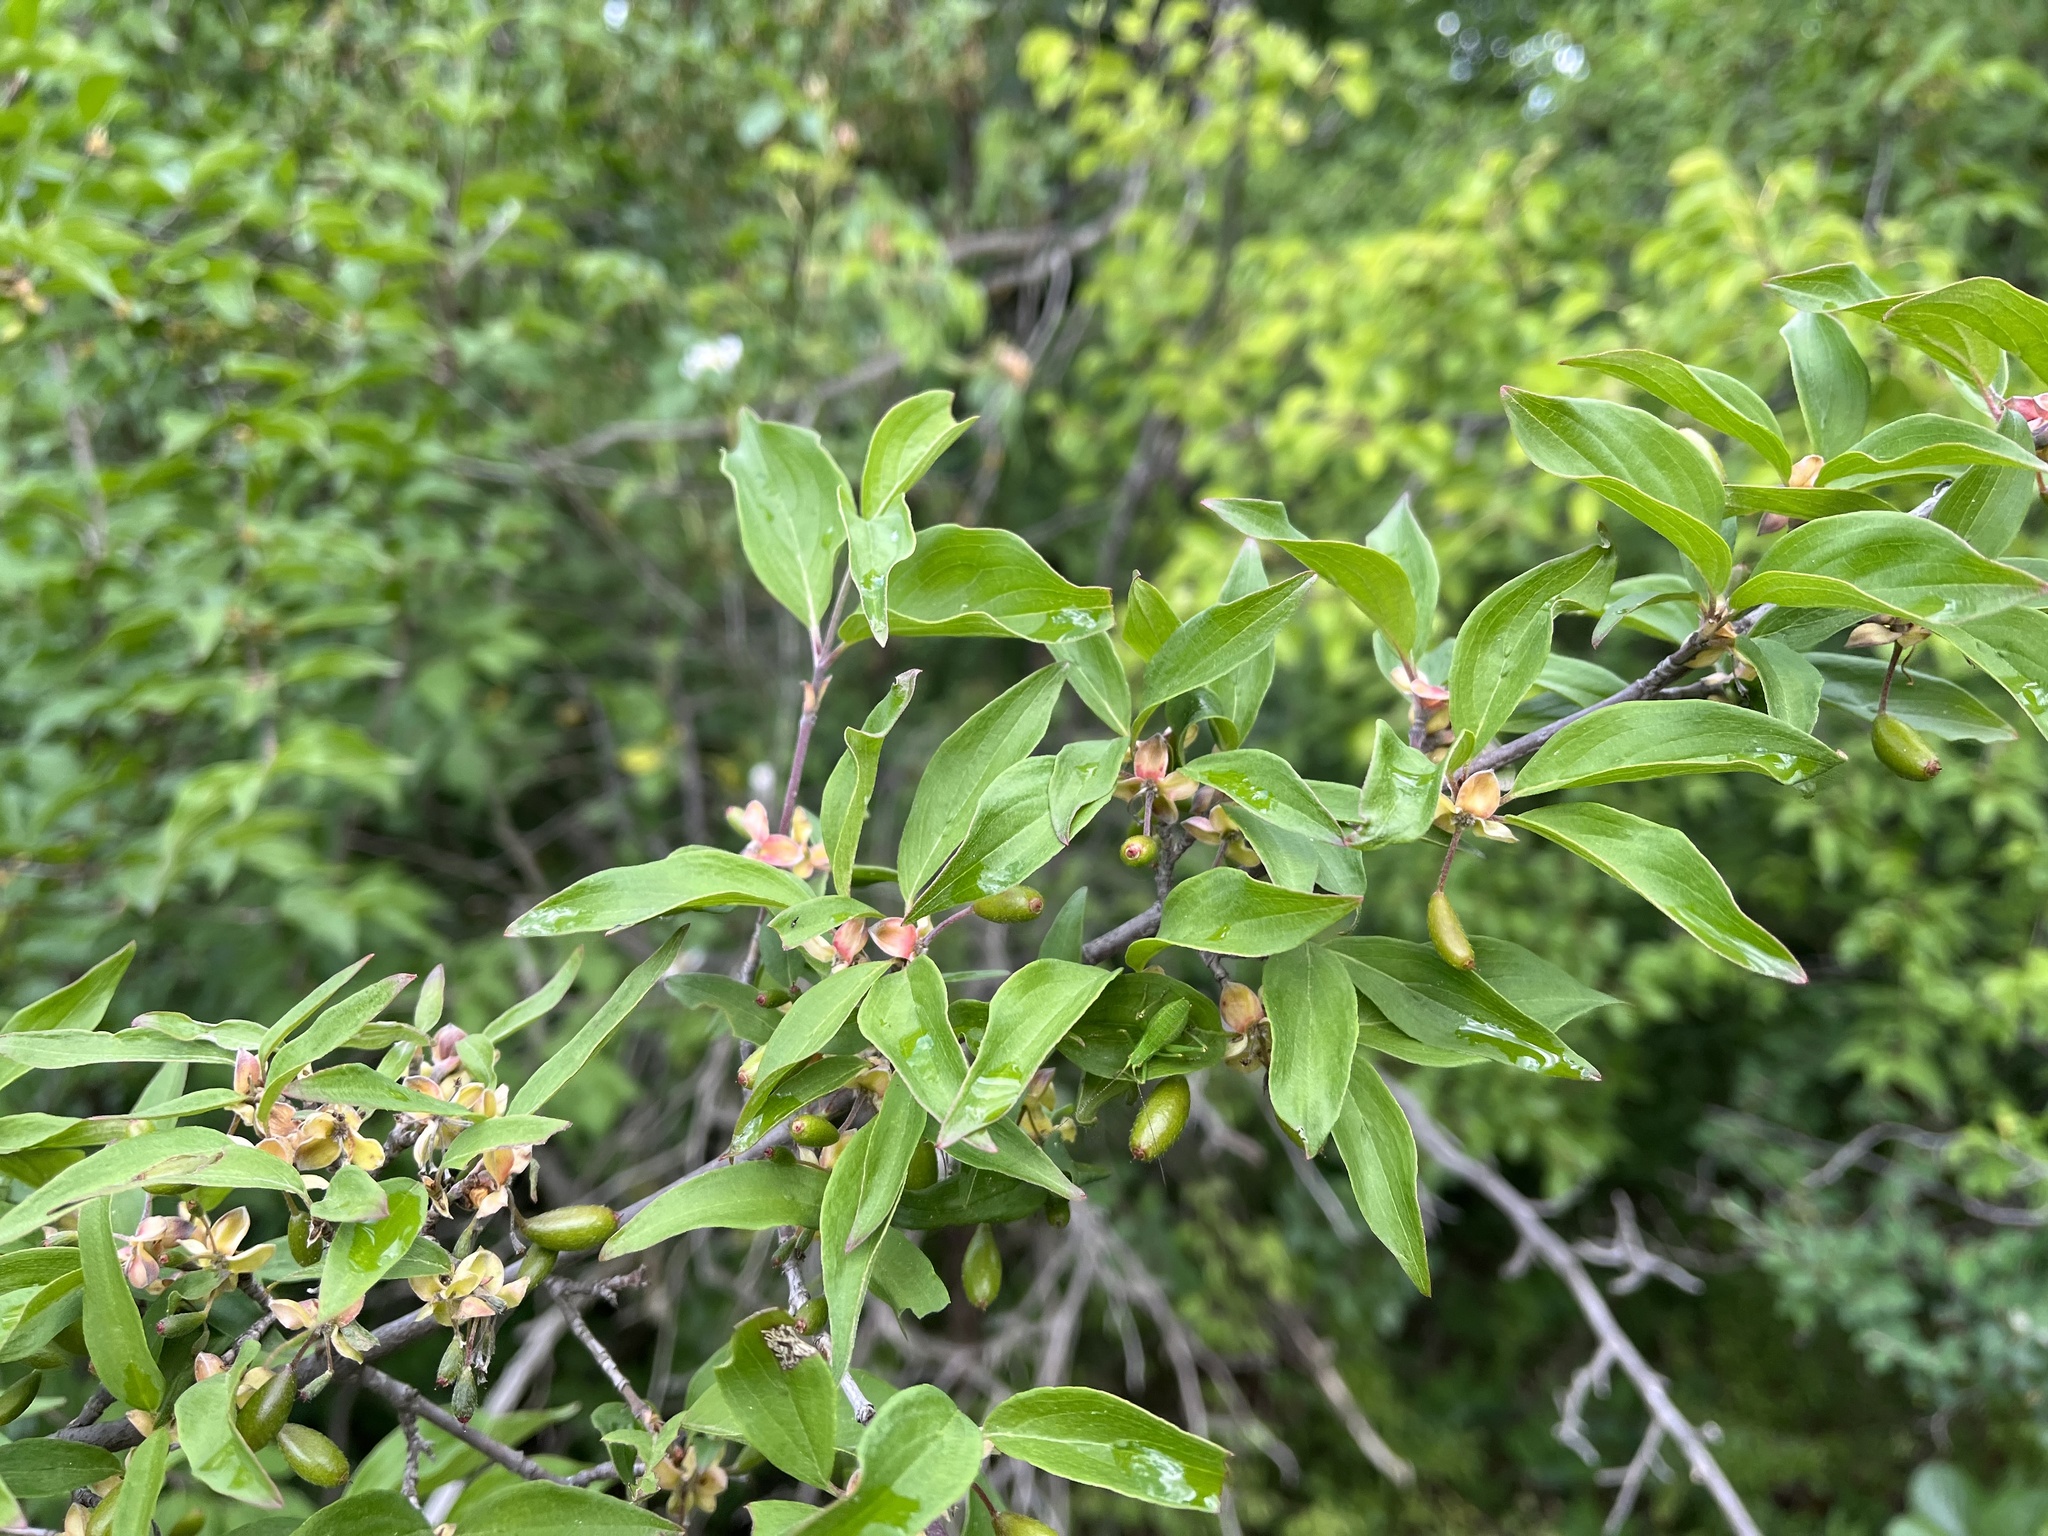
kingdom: Plantae
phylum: Tracheophyta
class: Magnoliopsida
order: Cornales
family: Cornaceae
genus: Cornus
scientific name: Cornus mas
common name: Cornelian-cherry
